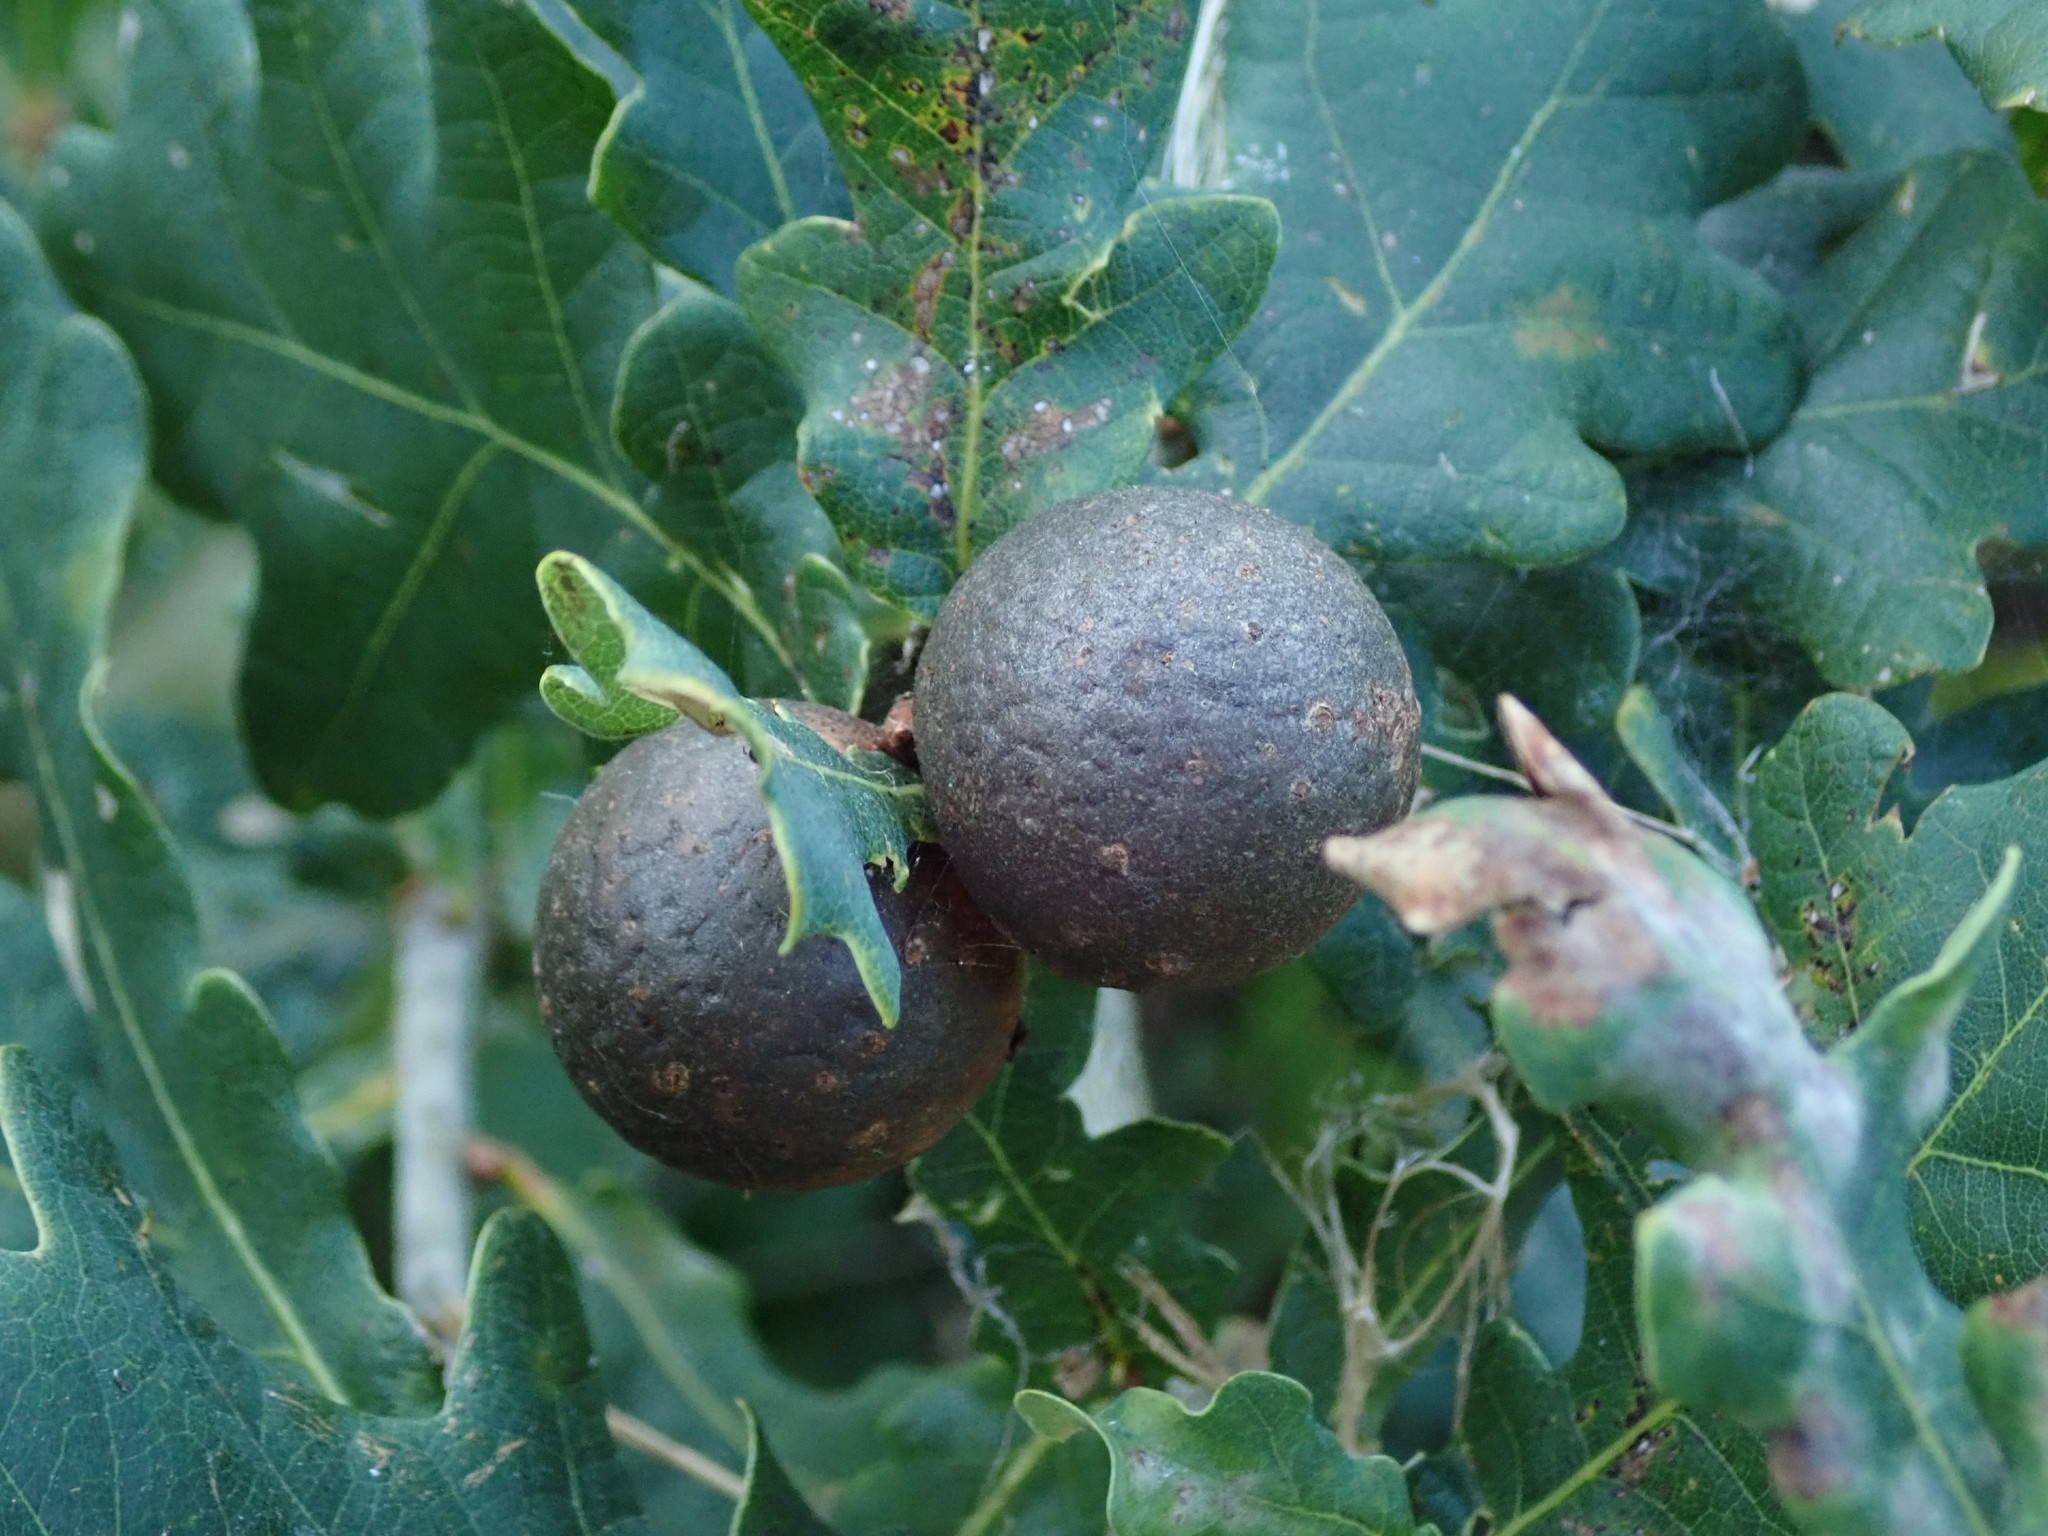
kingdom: Animalia
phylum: Arthropoda
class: Insecta
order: Hymenoptera
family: Cynipidae
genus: Andricus
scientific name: Andricus kollari
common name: Marble gall
